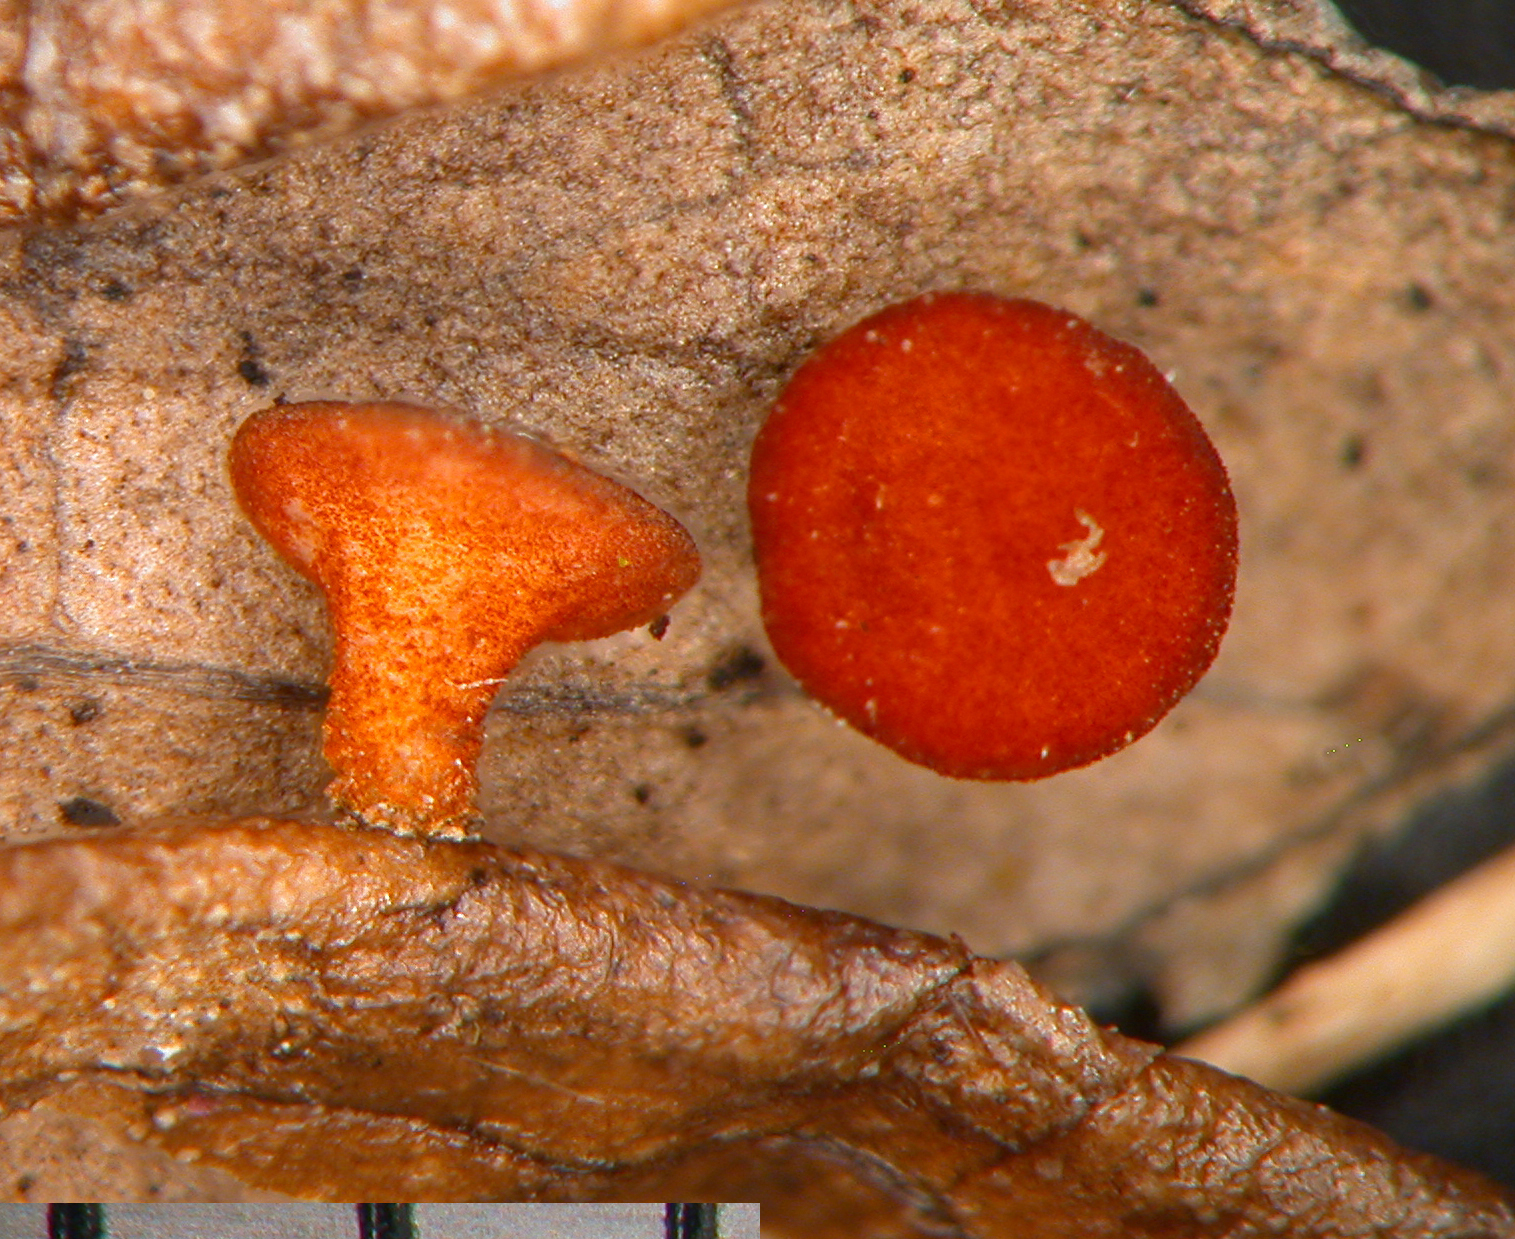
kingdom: Fungi
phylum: Ascomycota
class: Leotiomycetes
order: Helotiales
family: Sclerotiniaceae
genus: Moellerodiscus
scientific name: Moellerodiscus coprosmae
